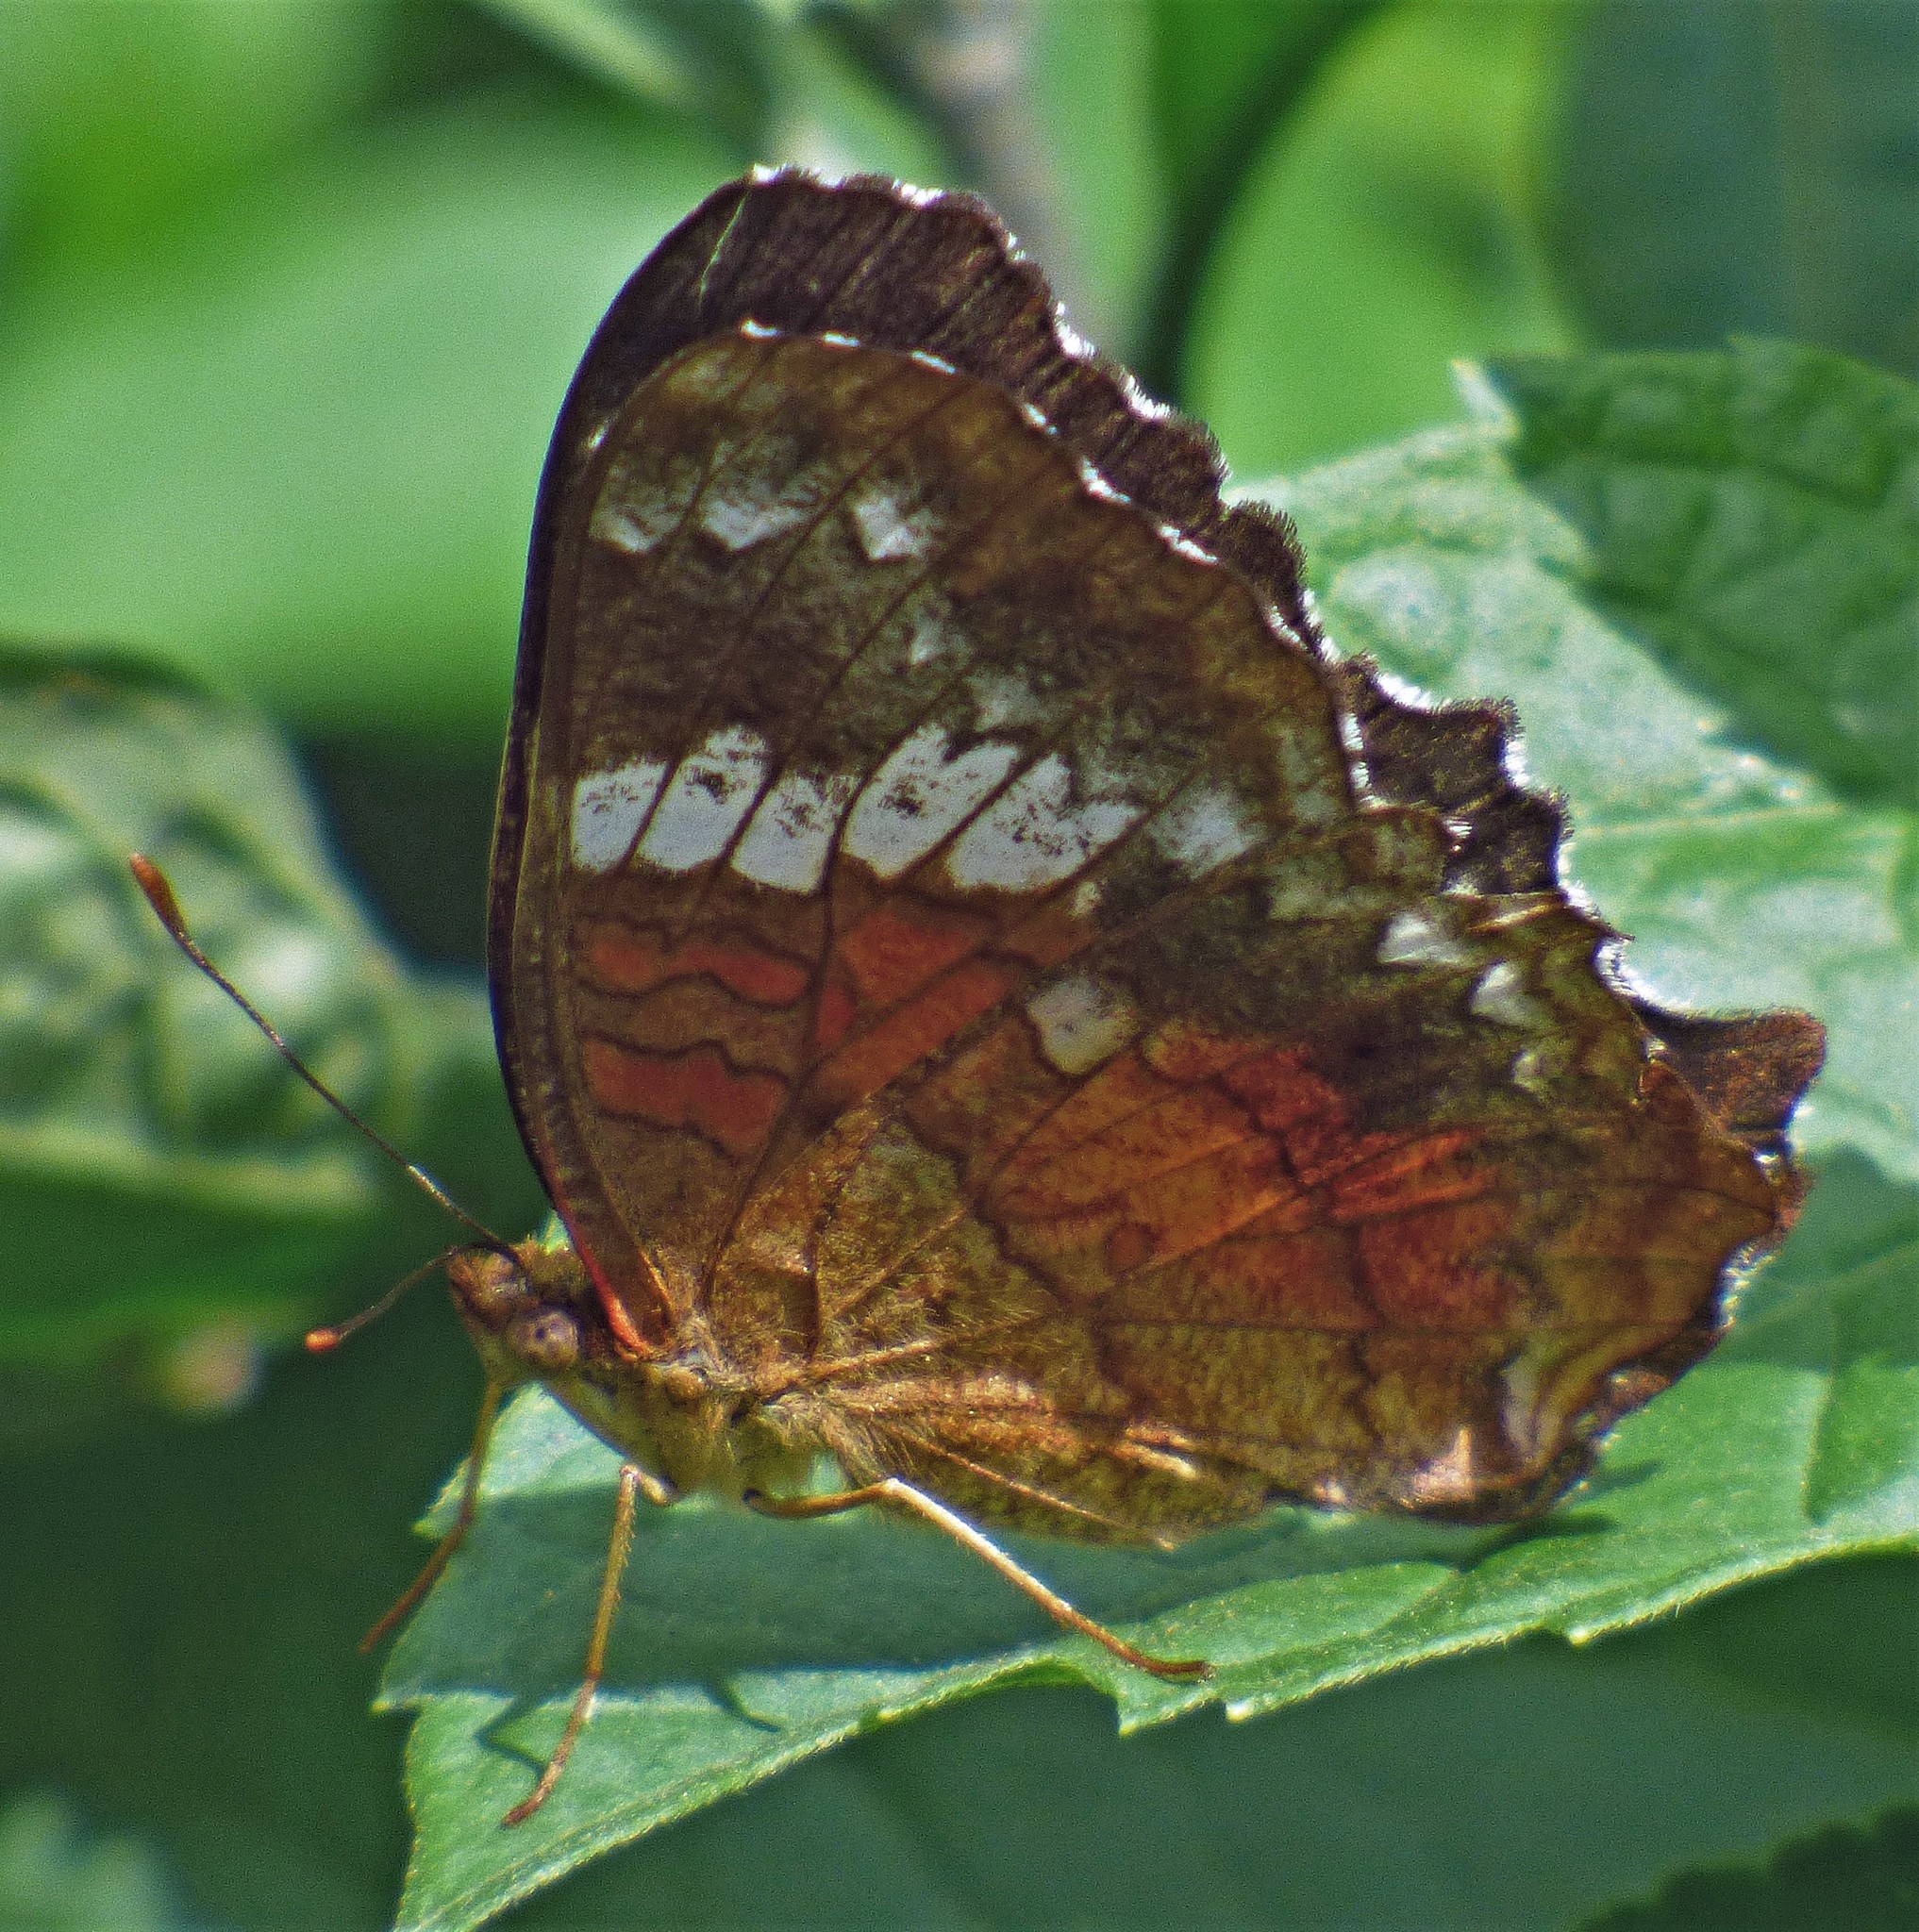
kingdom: Animalia
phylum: Arthropoda
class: Insecta
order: Lepidoptera
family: Nymphalidae
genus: Anartia
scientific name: Anartia amathea
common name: Red peacock
